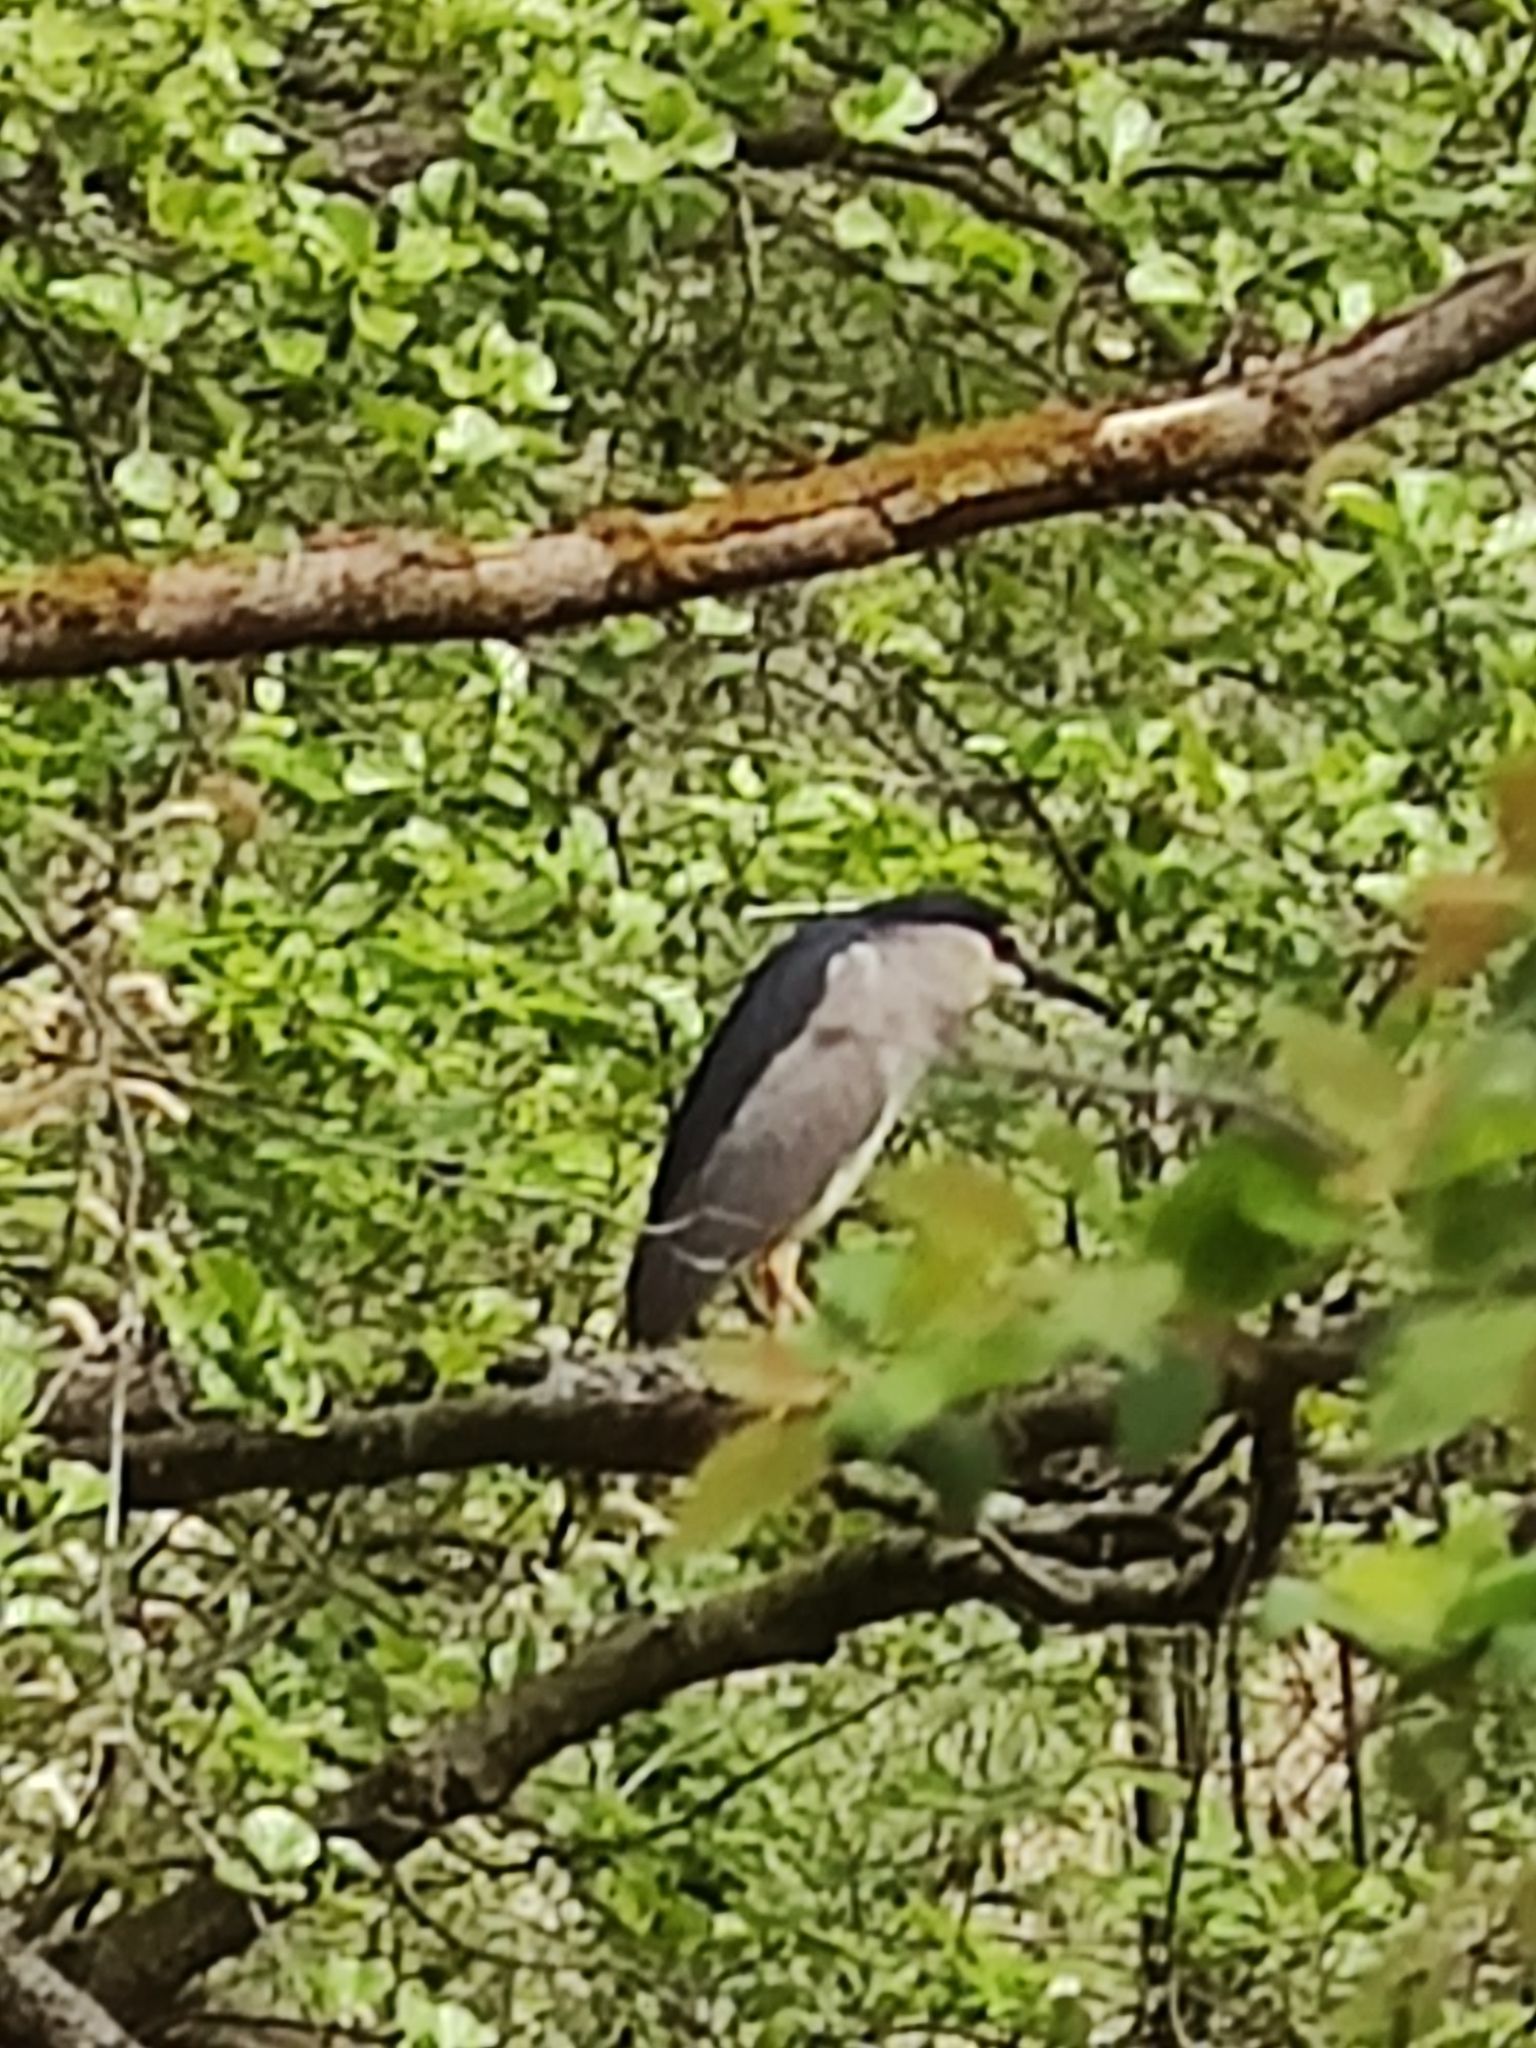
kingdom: Animalia
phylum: Chordata
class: Aves
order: Pelecaniformes
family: Ardeidae
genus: Nycticorax
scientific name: Nycticorax nycticorax
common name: Black-crowned night heron
